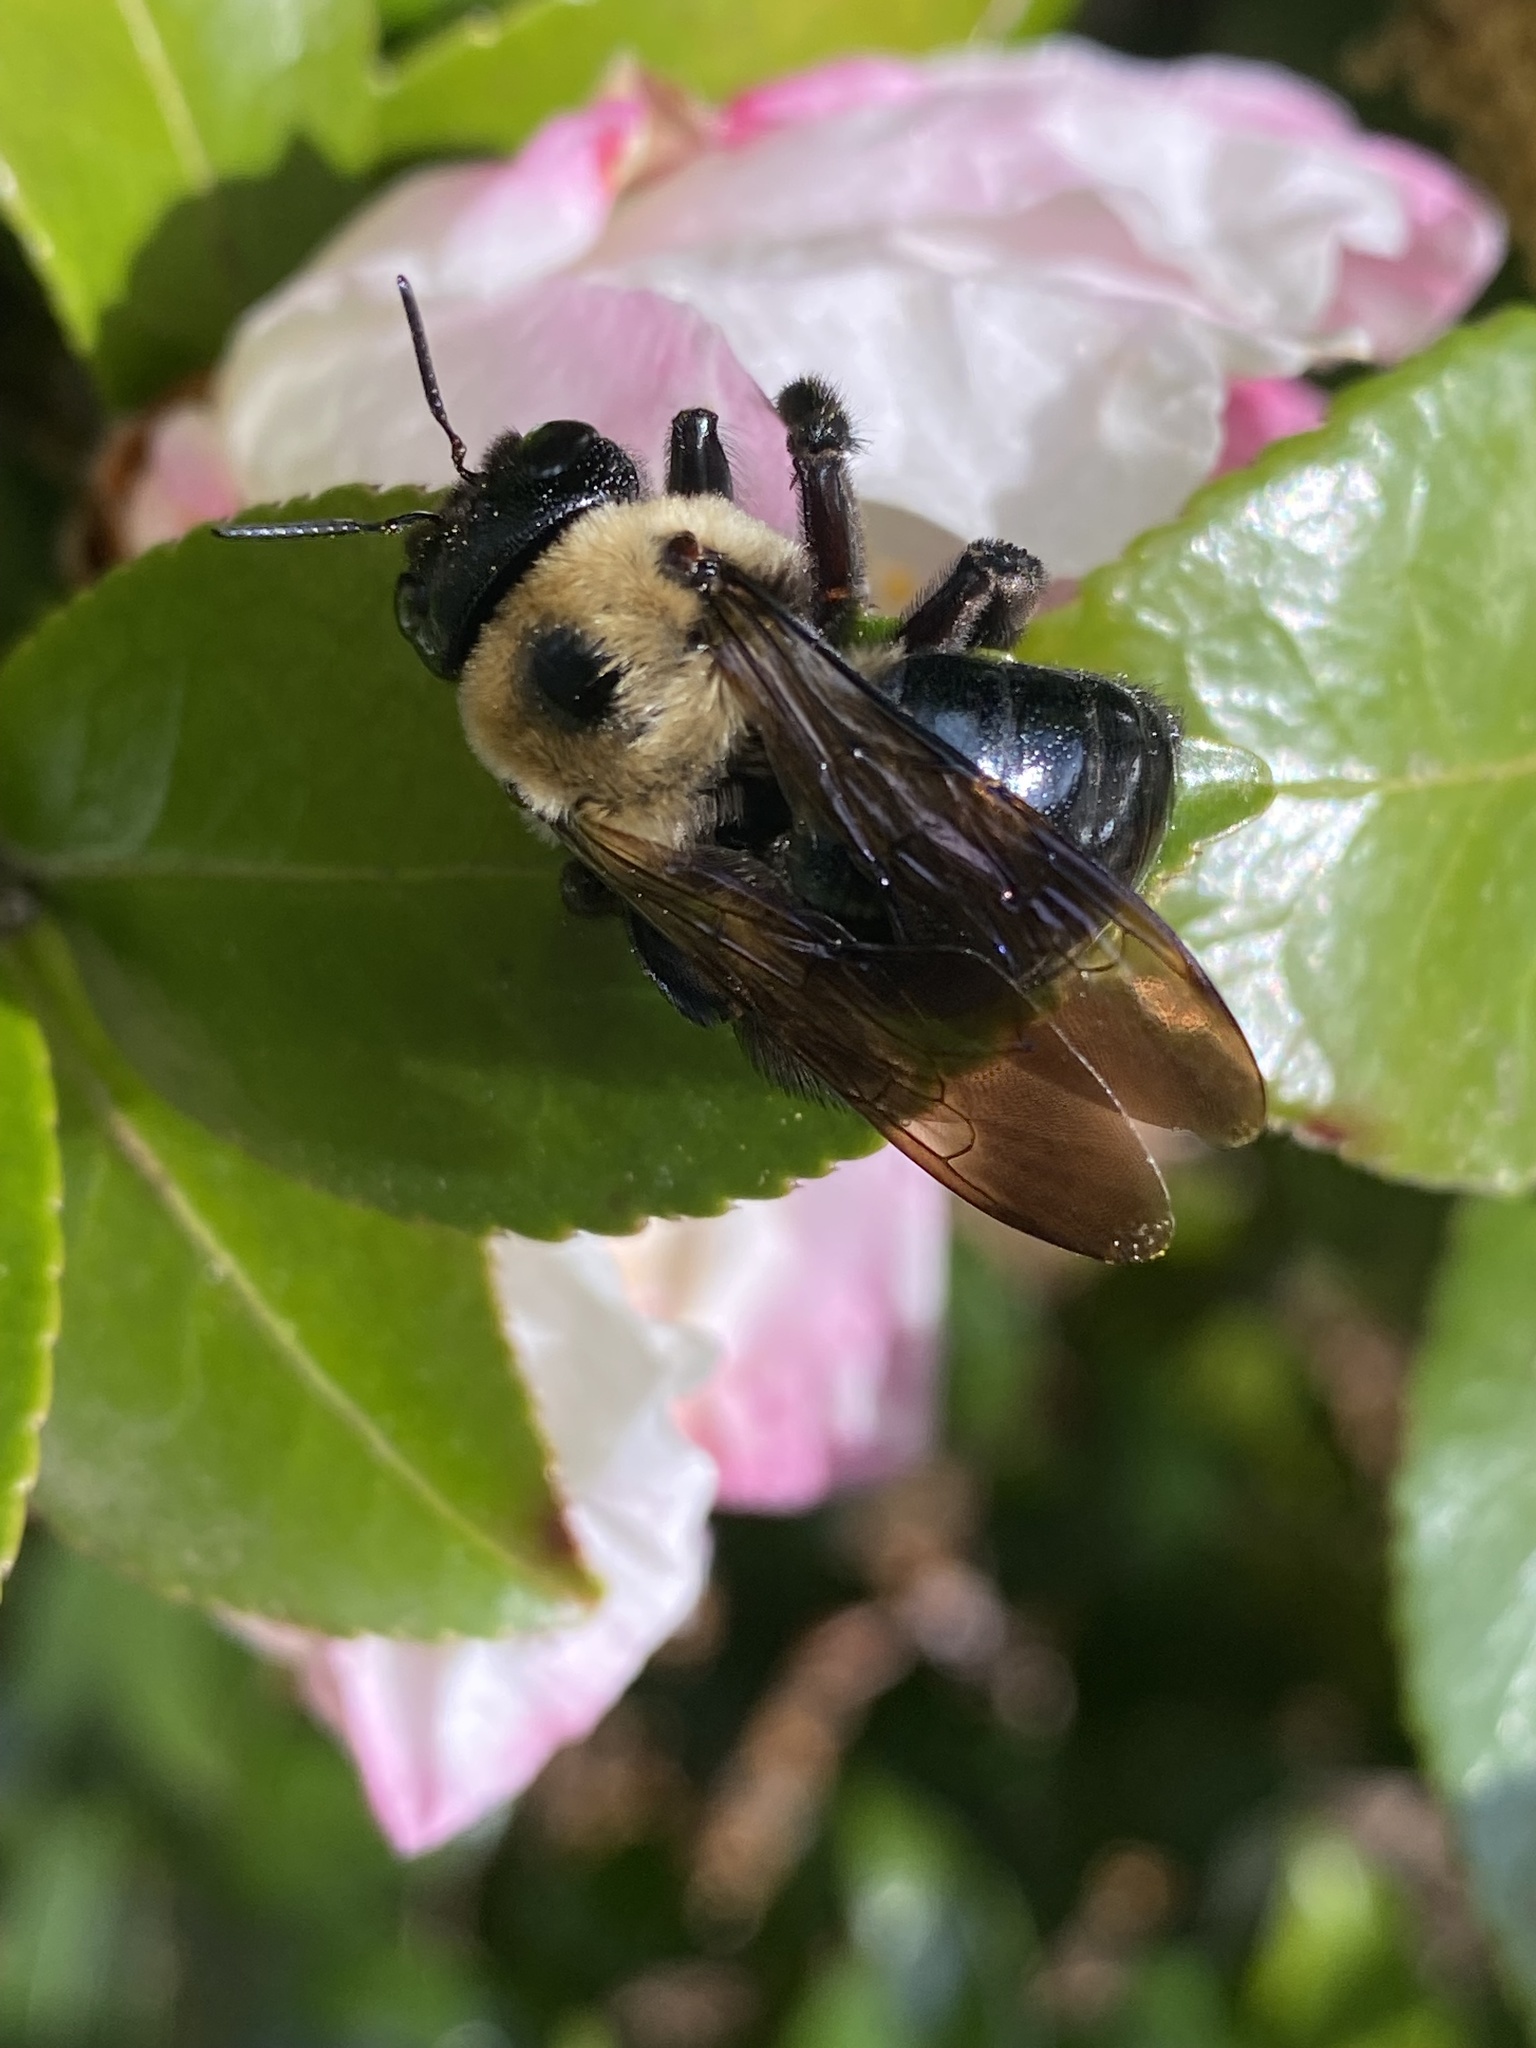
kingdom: Animalia
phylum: Arthropoda
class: Insecta
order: Hymenoptera
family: Apidae
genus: Xylocopa
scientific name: Xylocopa virginica
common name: Carpenter bee
